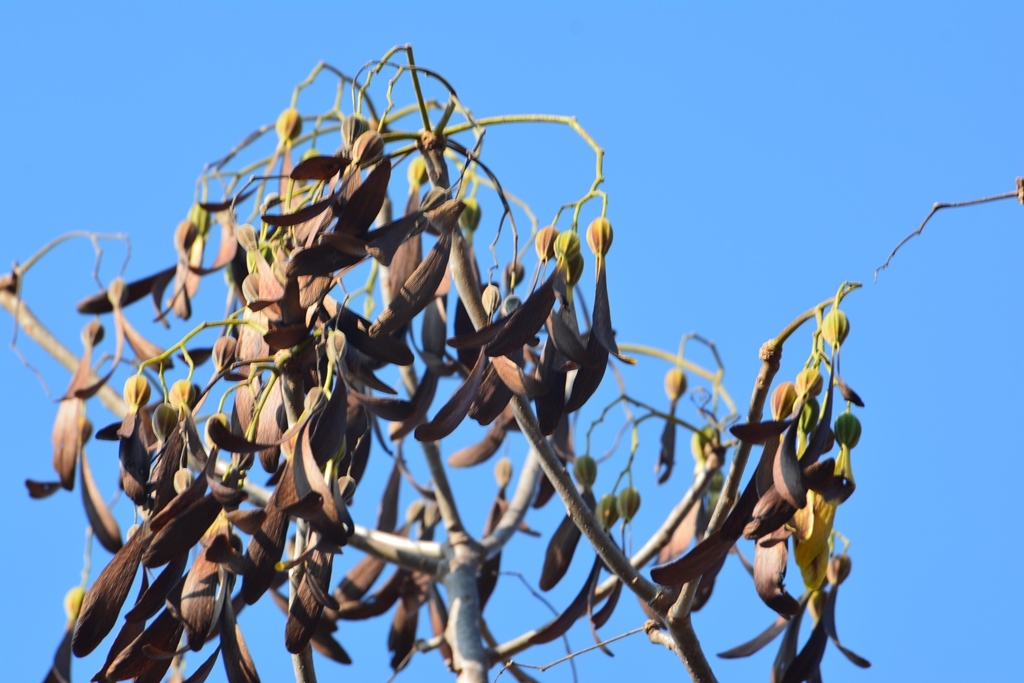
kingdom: Plantae
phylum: Tracheophyta
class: Magnoliopsida
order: Laurales
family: Hernandiaceae
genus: Gyrocarpus
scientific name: Gyrocarpus mocinoi
